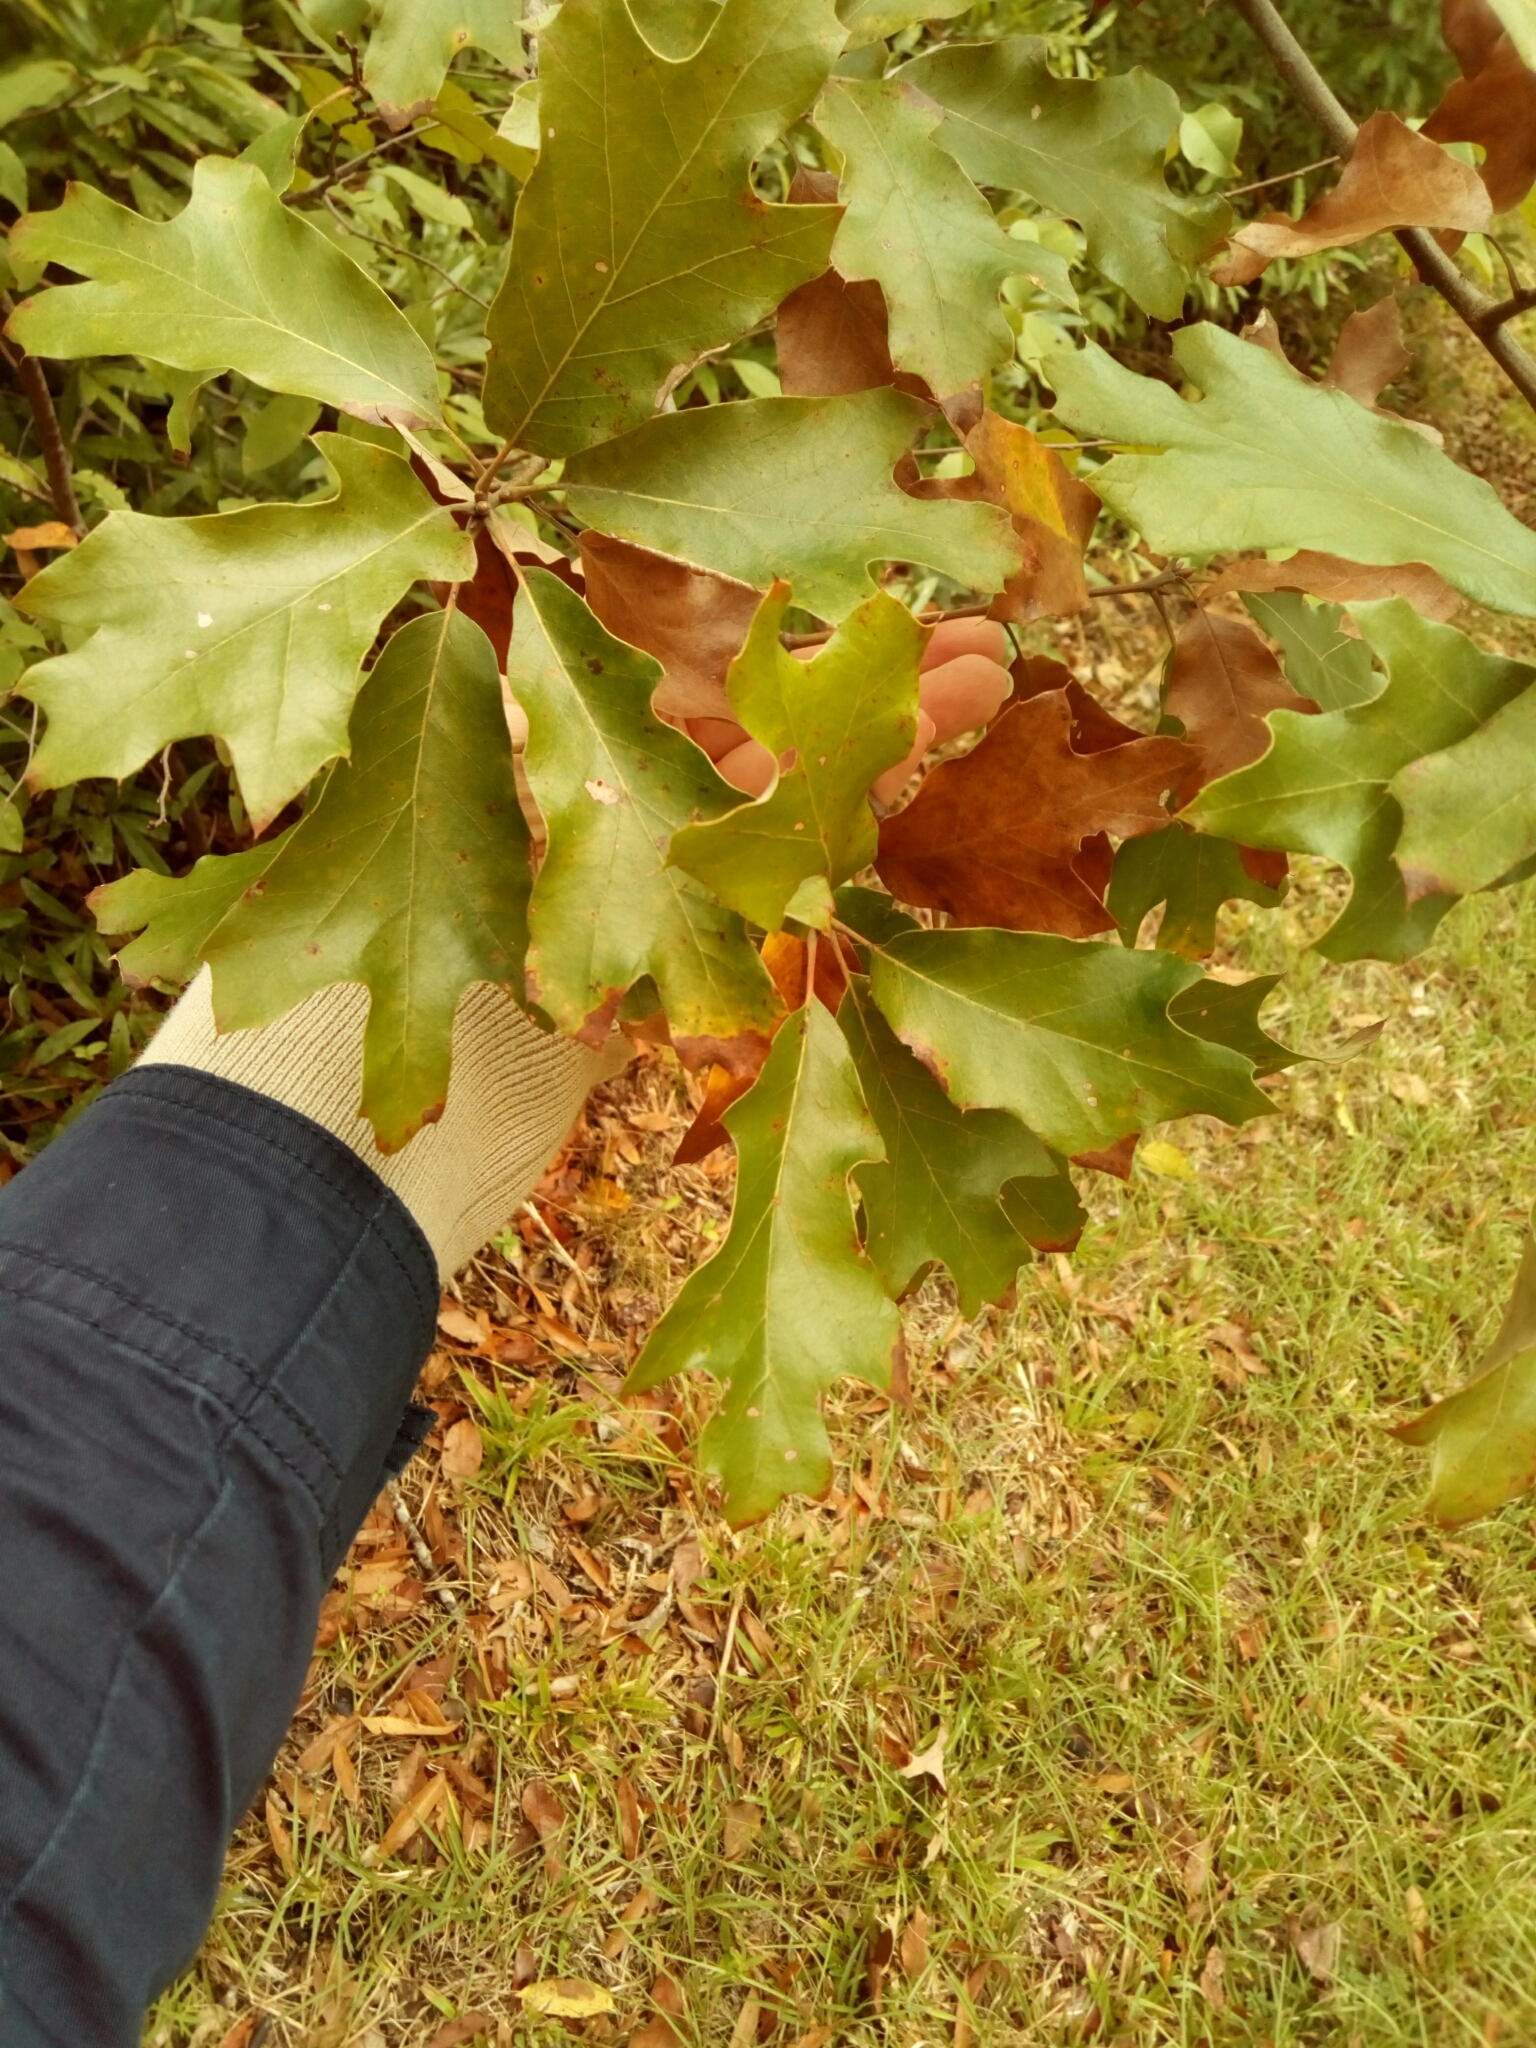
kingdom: Plantae
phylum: Tracheophyta
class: Magnoliopsida
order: Fagales
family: Fagaceae
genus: Quercus
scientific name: Quercus falcata
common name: Southern red oak
